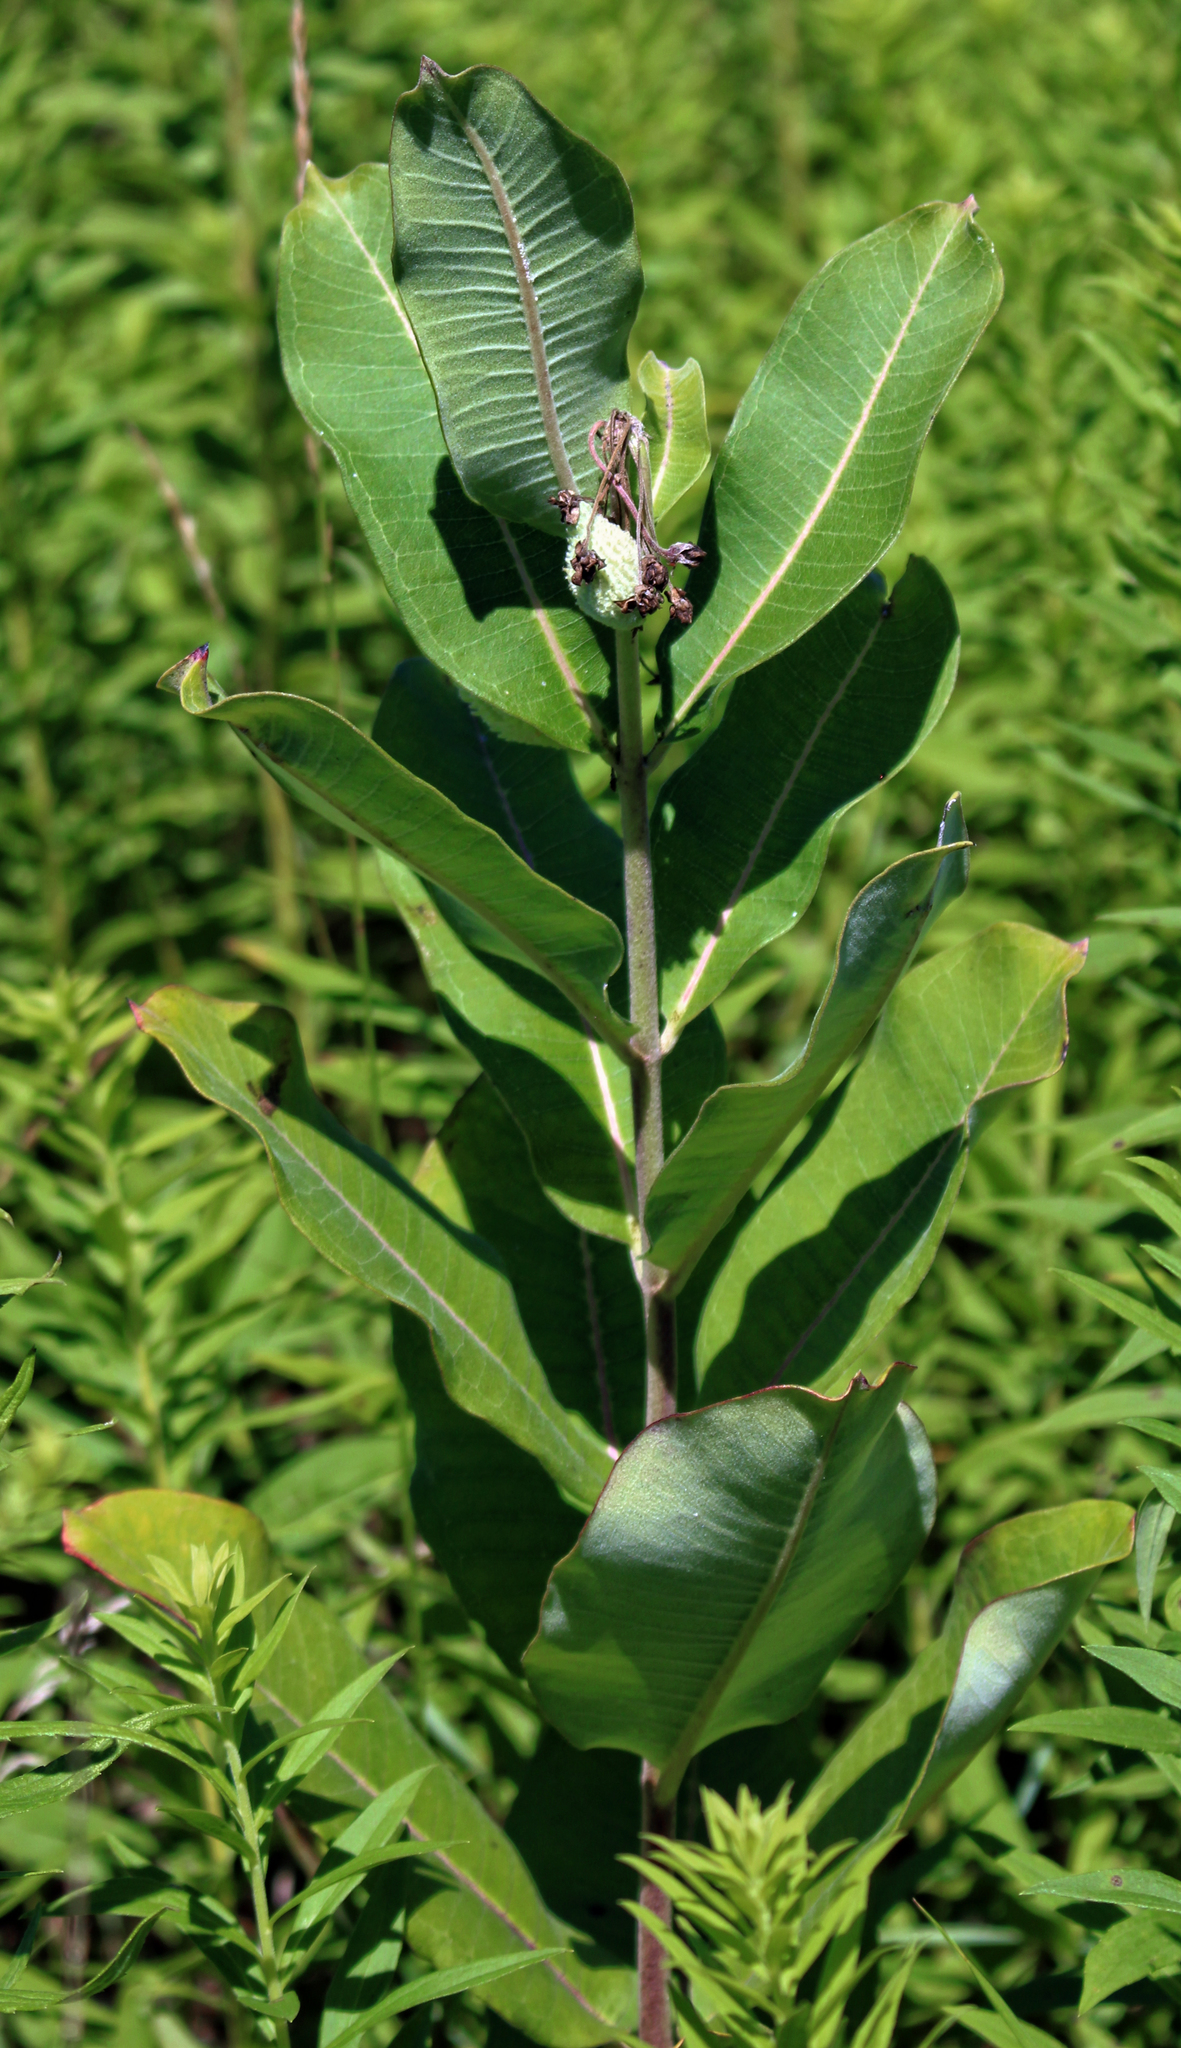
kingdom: Plantae
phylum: Tracheophyta
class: Magnoliopsida
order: Gentianales
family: Apocynaceae
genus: Asclepias
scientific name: Asclepias syriaca
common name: Common milkweed
